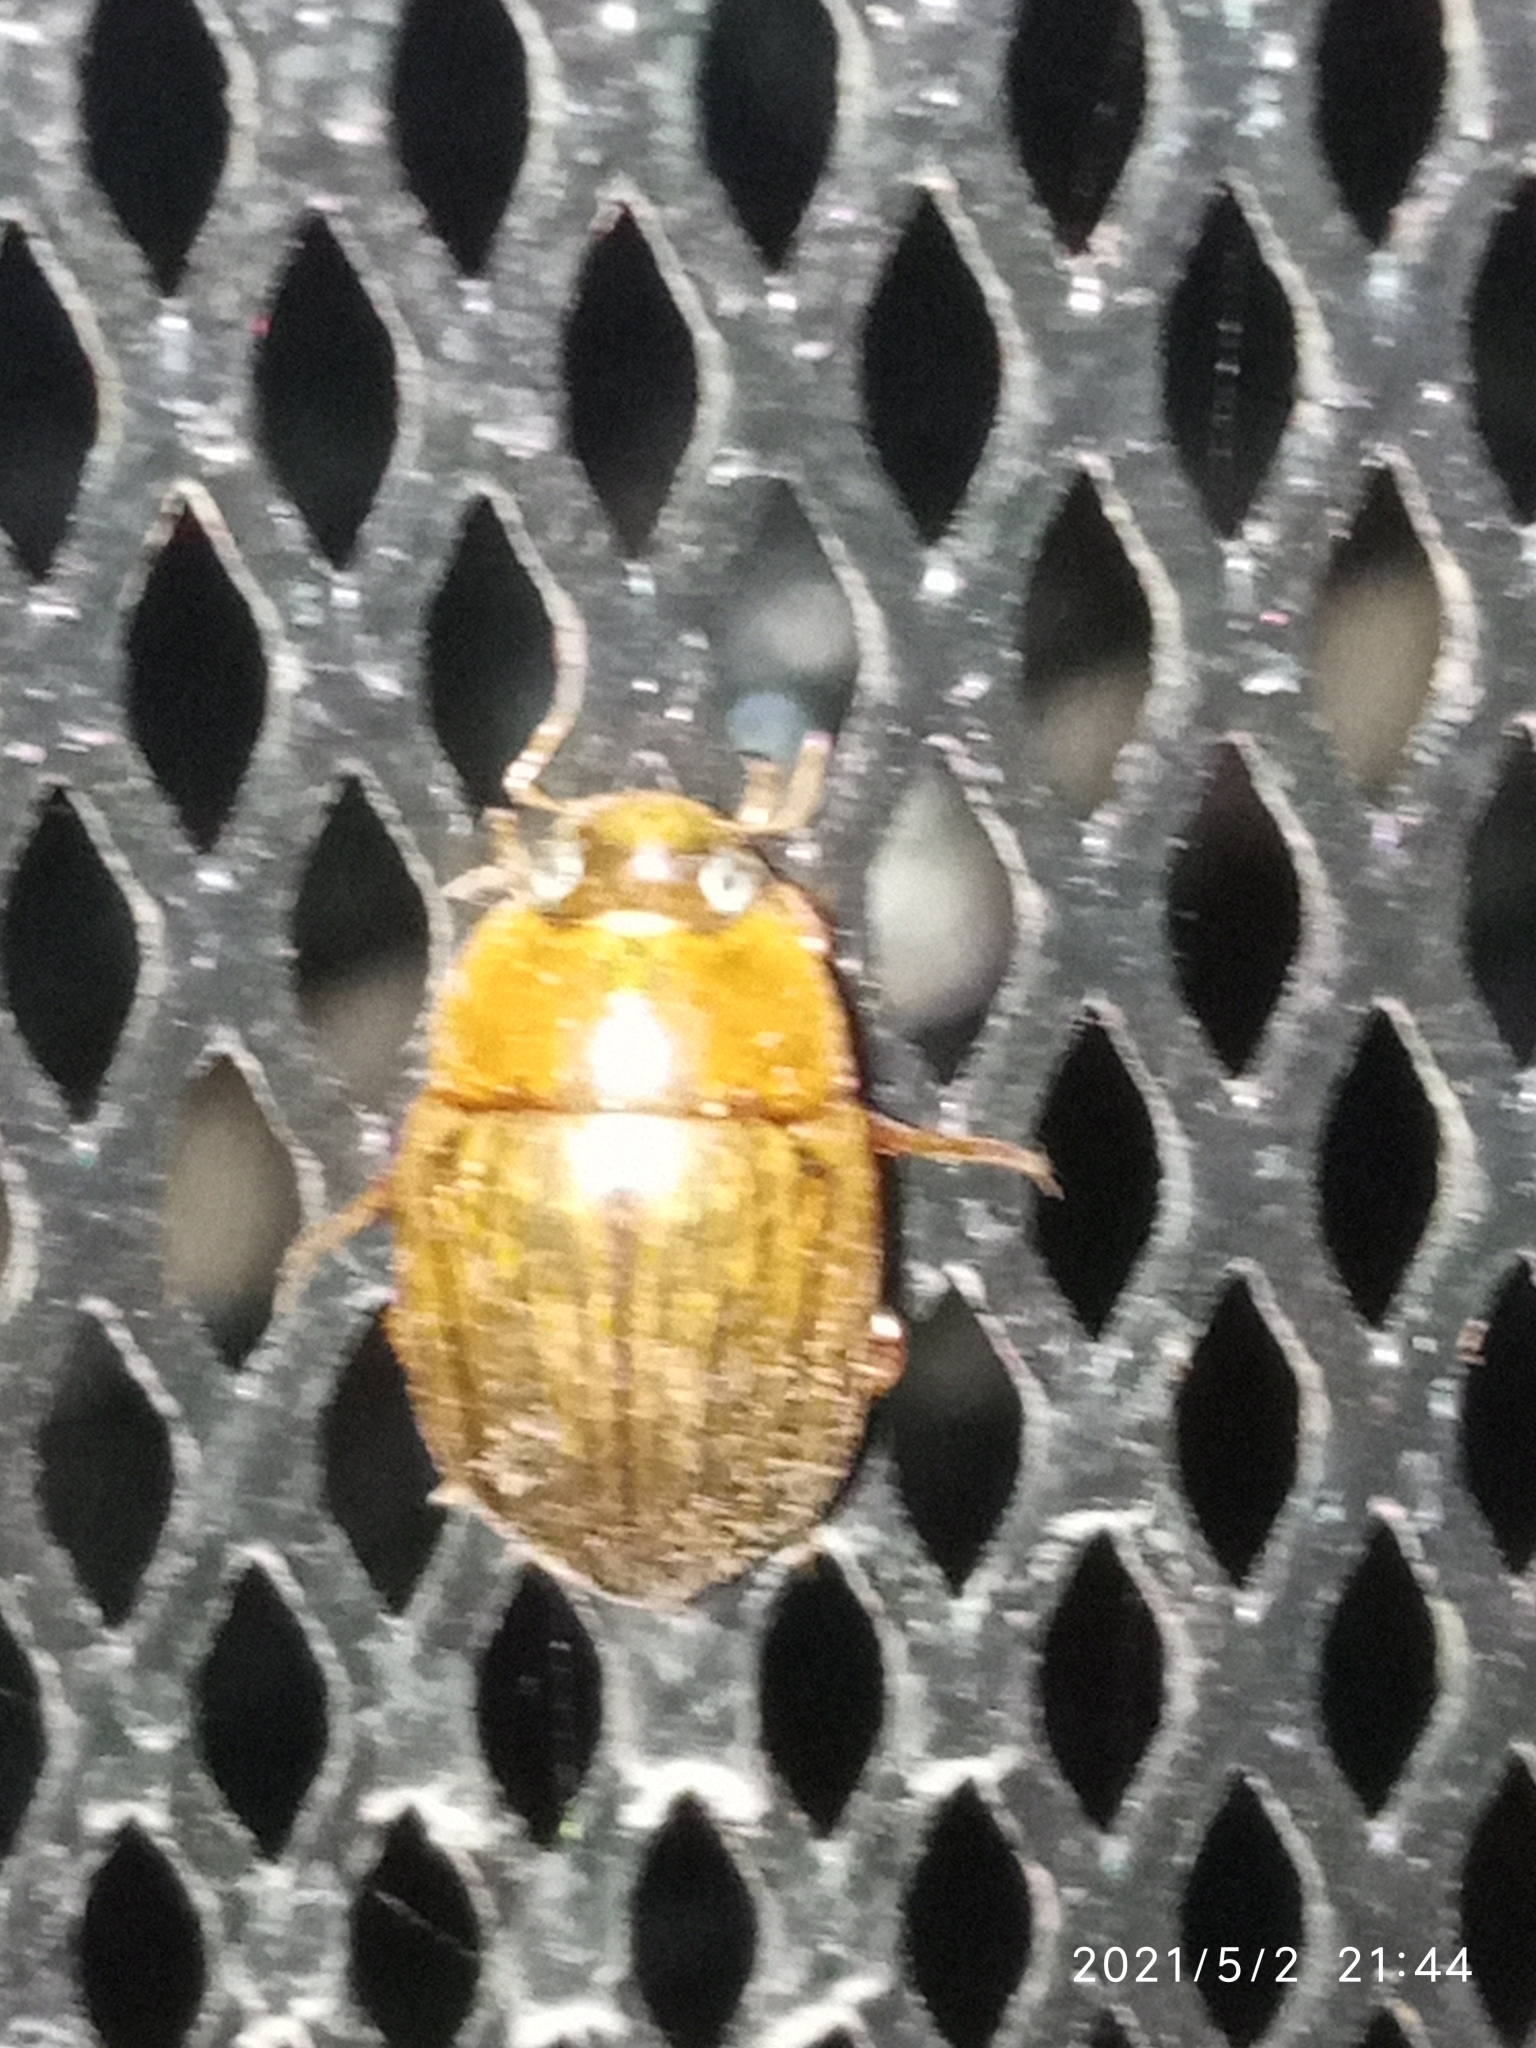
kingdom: Animalia
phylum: Arthropoda
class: Insecta
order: Coleoptera
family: Hydrophilidae
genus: Tropisternus
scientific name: Tropisternus collaris
